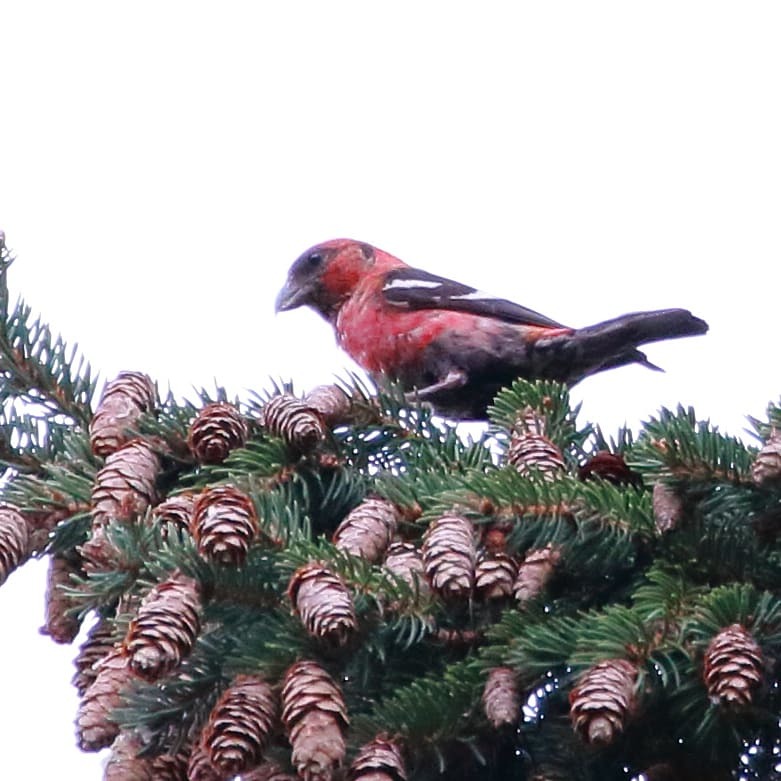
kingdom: Animalia
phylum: Chordata
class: Aves
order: Passeriformes
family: Fringillidae
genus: Loxia
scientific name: Loxia leucoptera
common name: Two-barred crossbill
